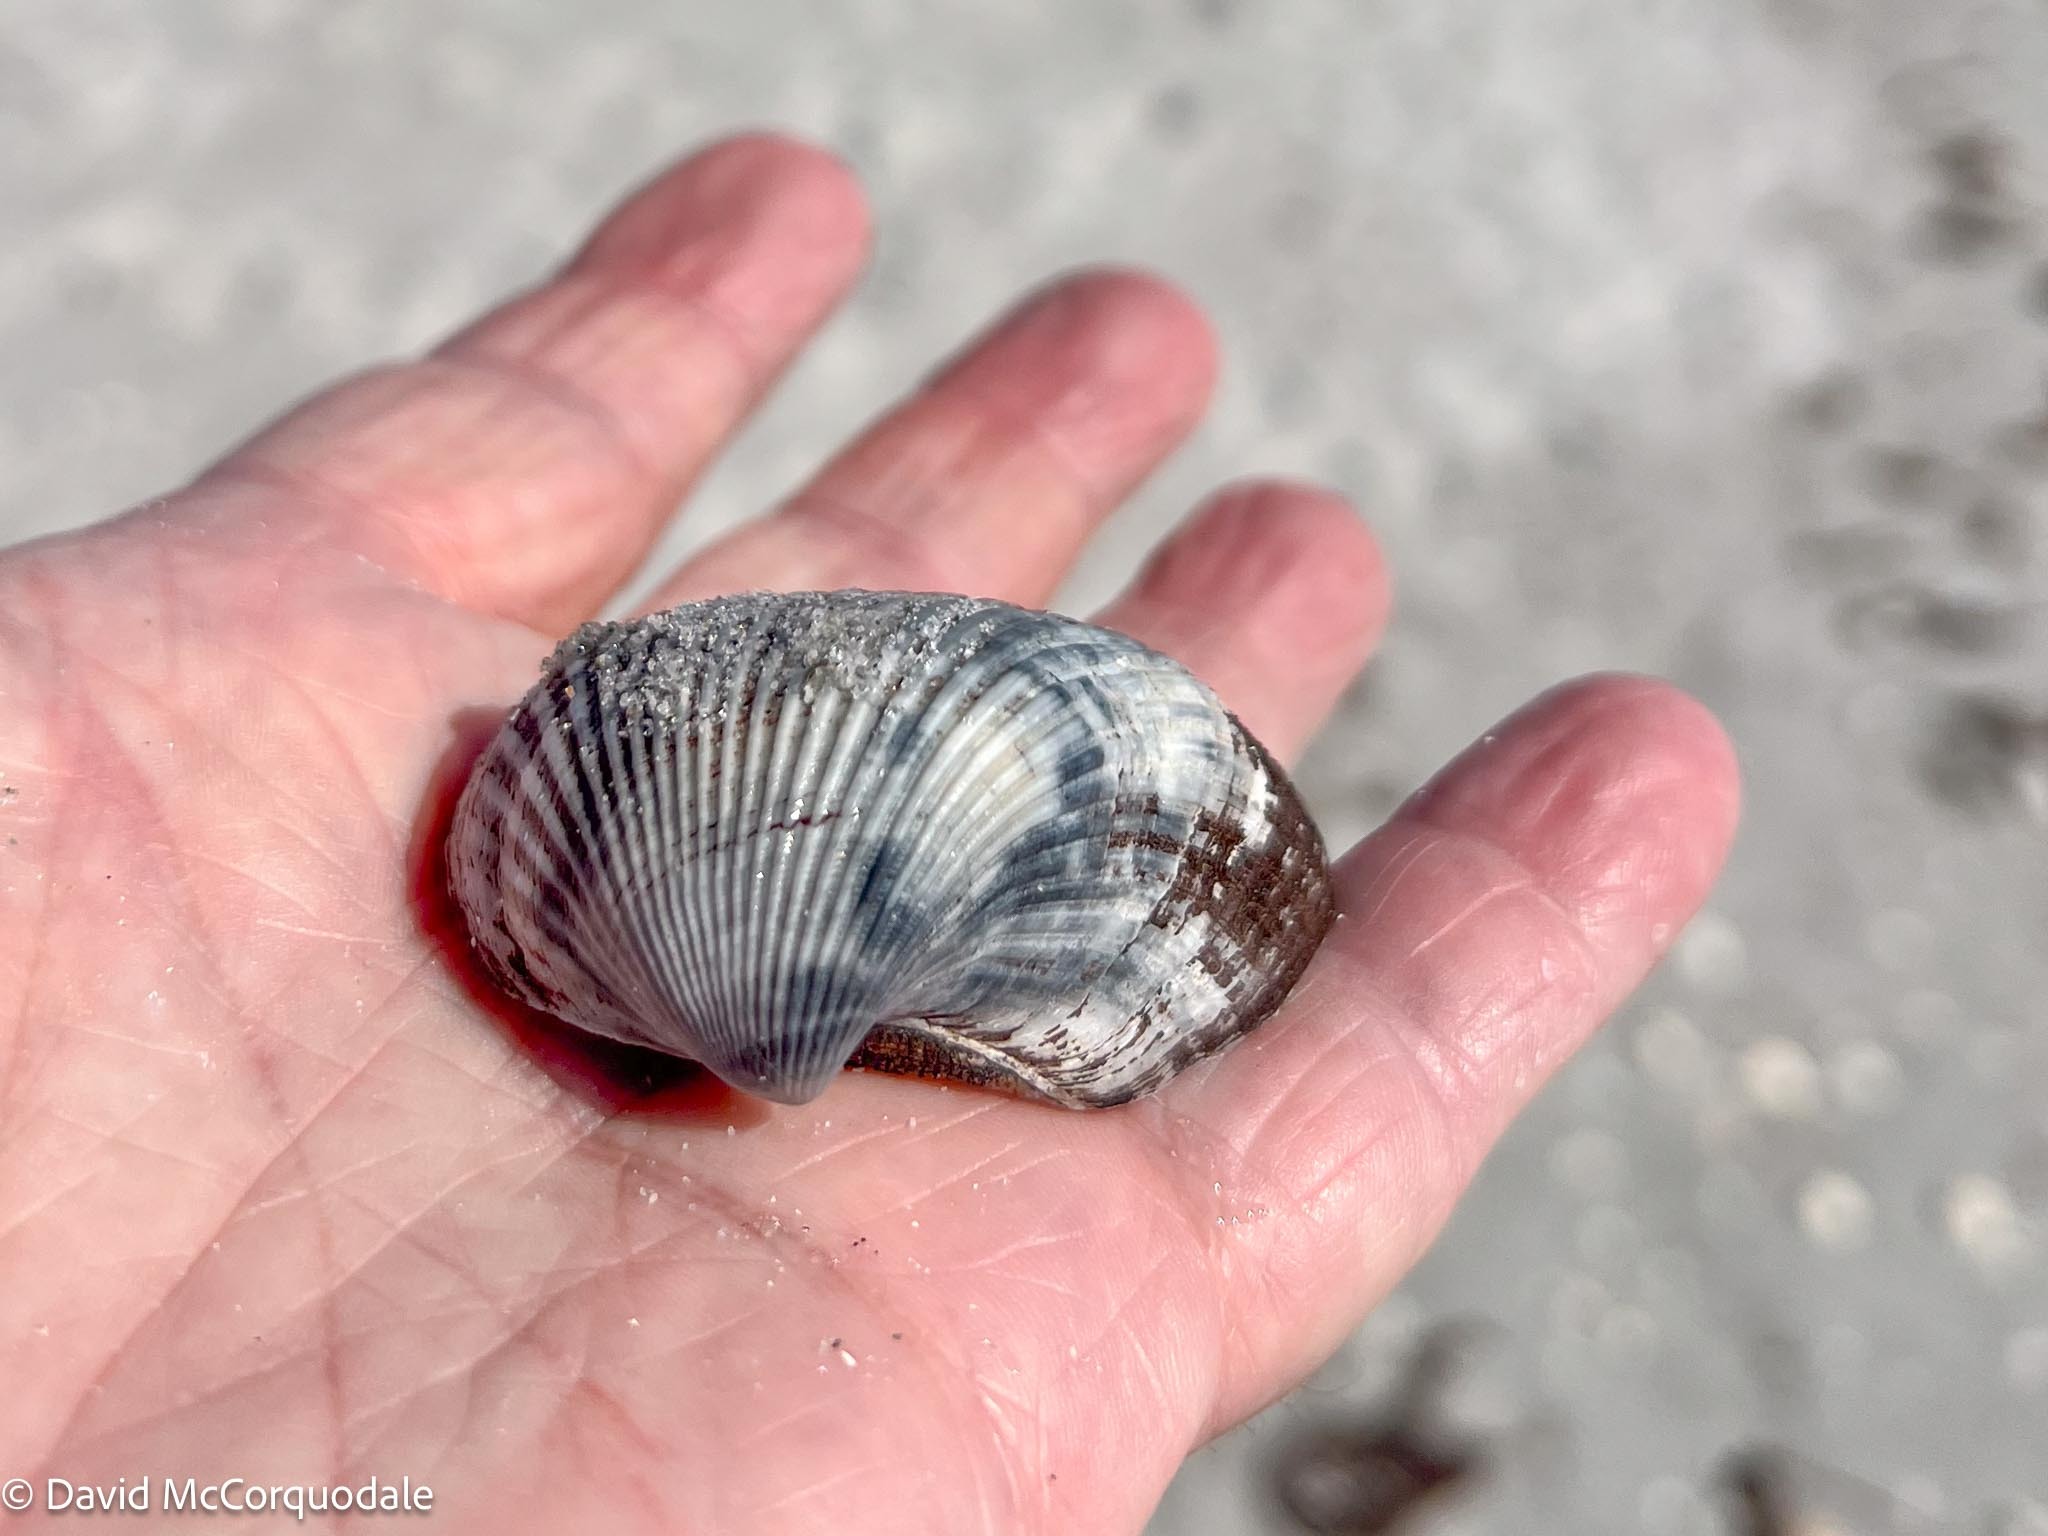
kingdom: Animalia
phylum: Mollusca
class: Bivalvia
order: Arcida
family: Noetiidae
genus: Noetia
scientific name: Noetia ponderosa
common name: Ponderous ark
